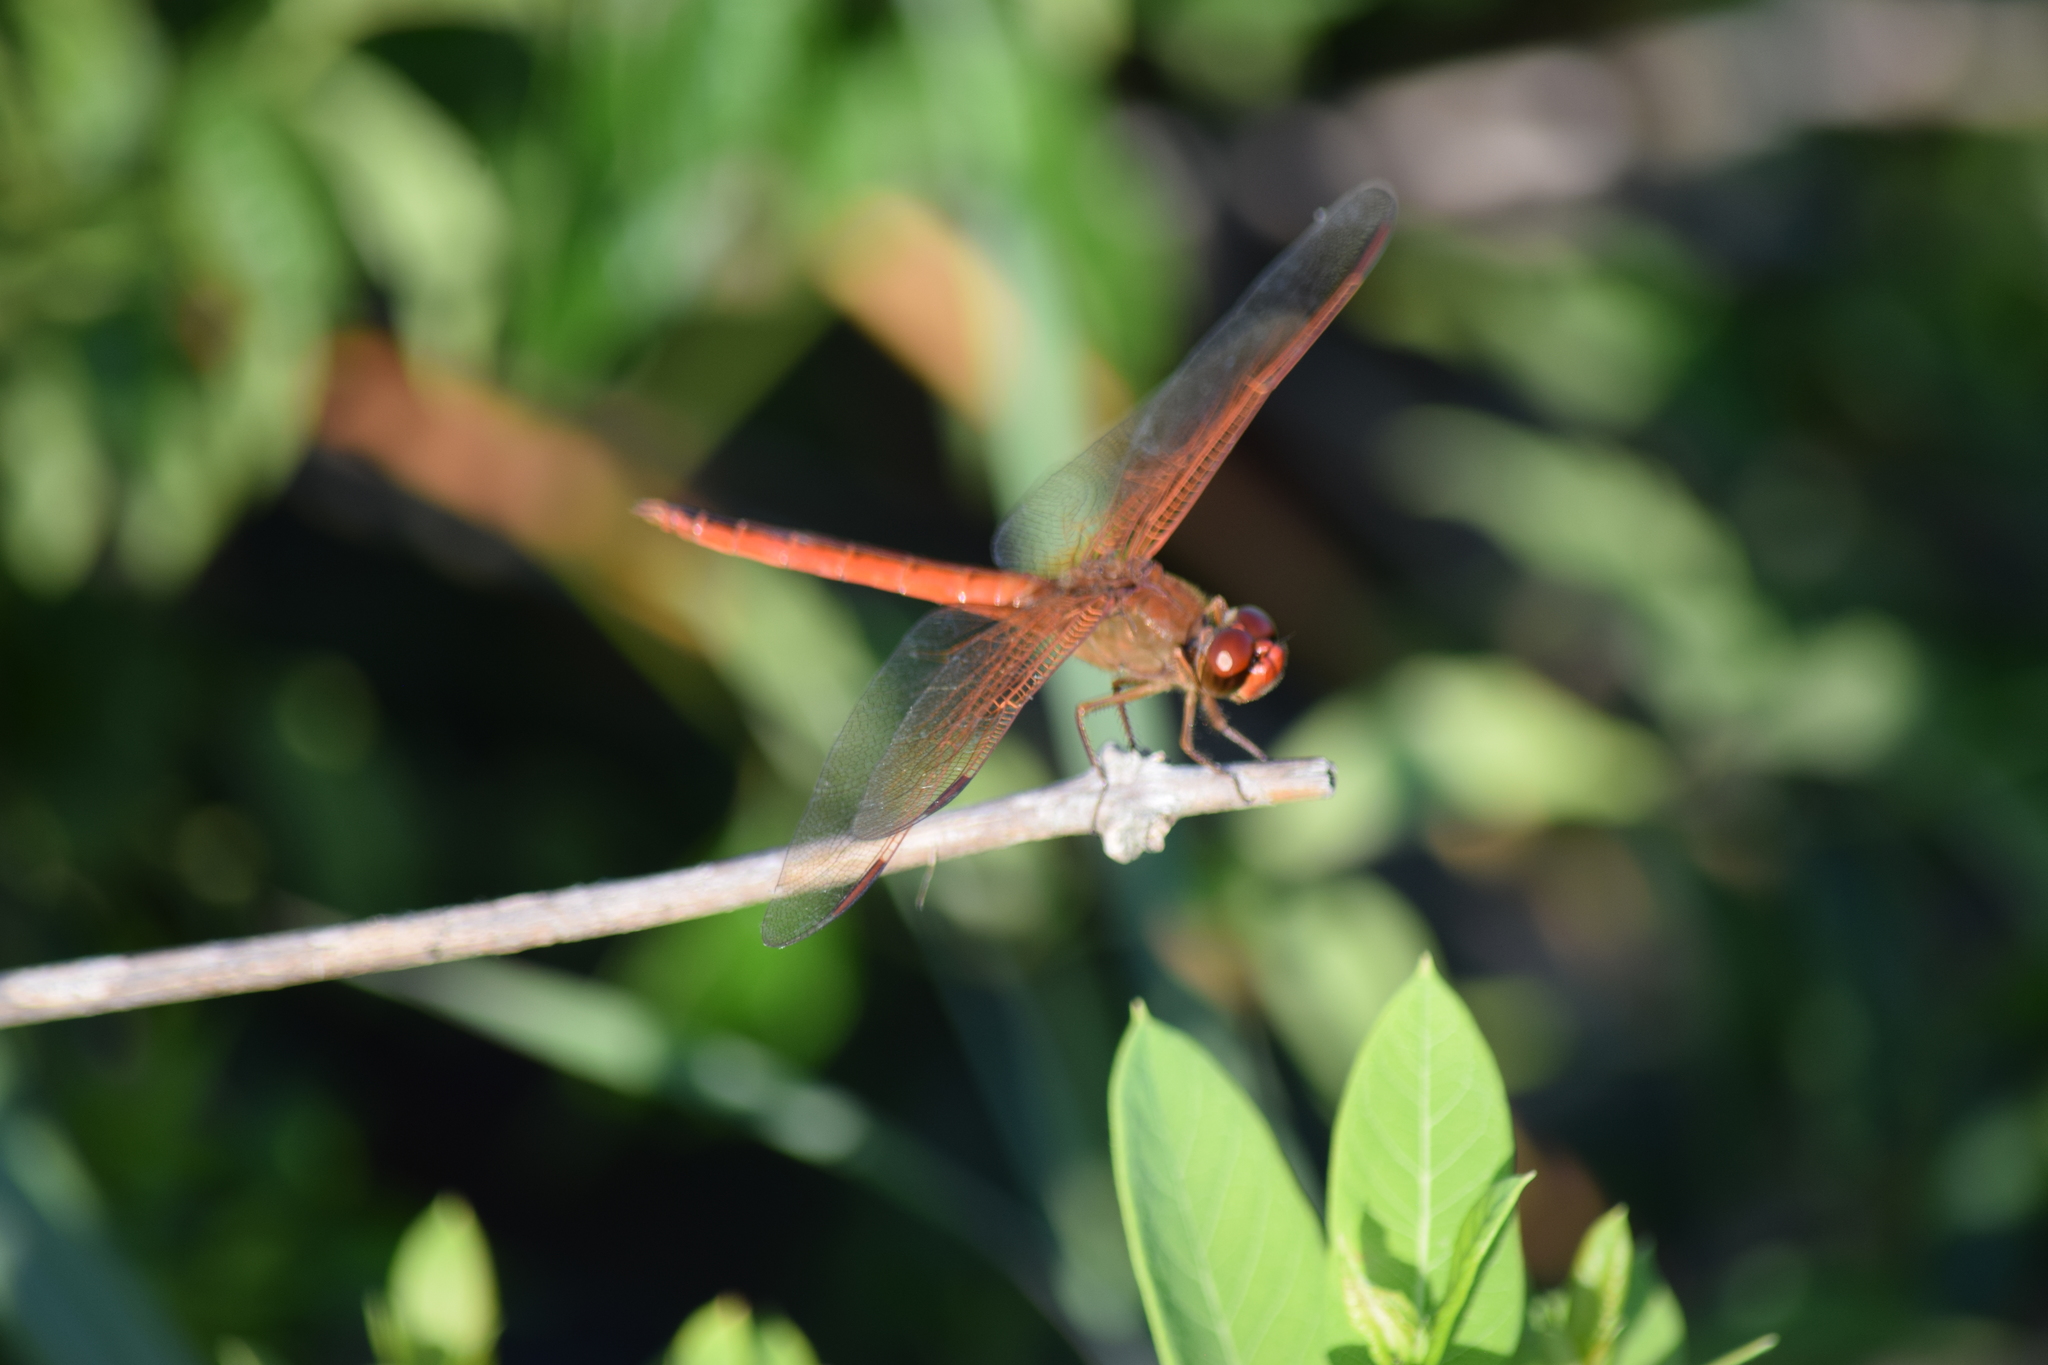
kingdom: Animalia
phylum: Arthropoda
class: Insecta
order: Odonata
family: Libellulidae
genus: Libellula
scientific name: Libellula needhami
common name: Needham's skimmer
